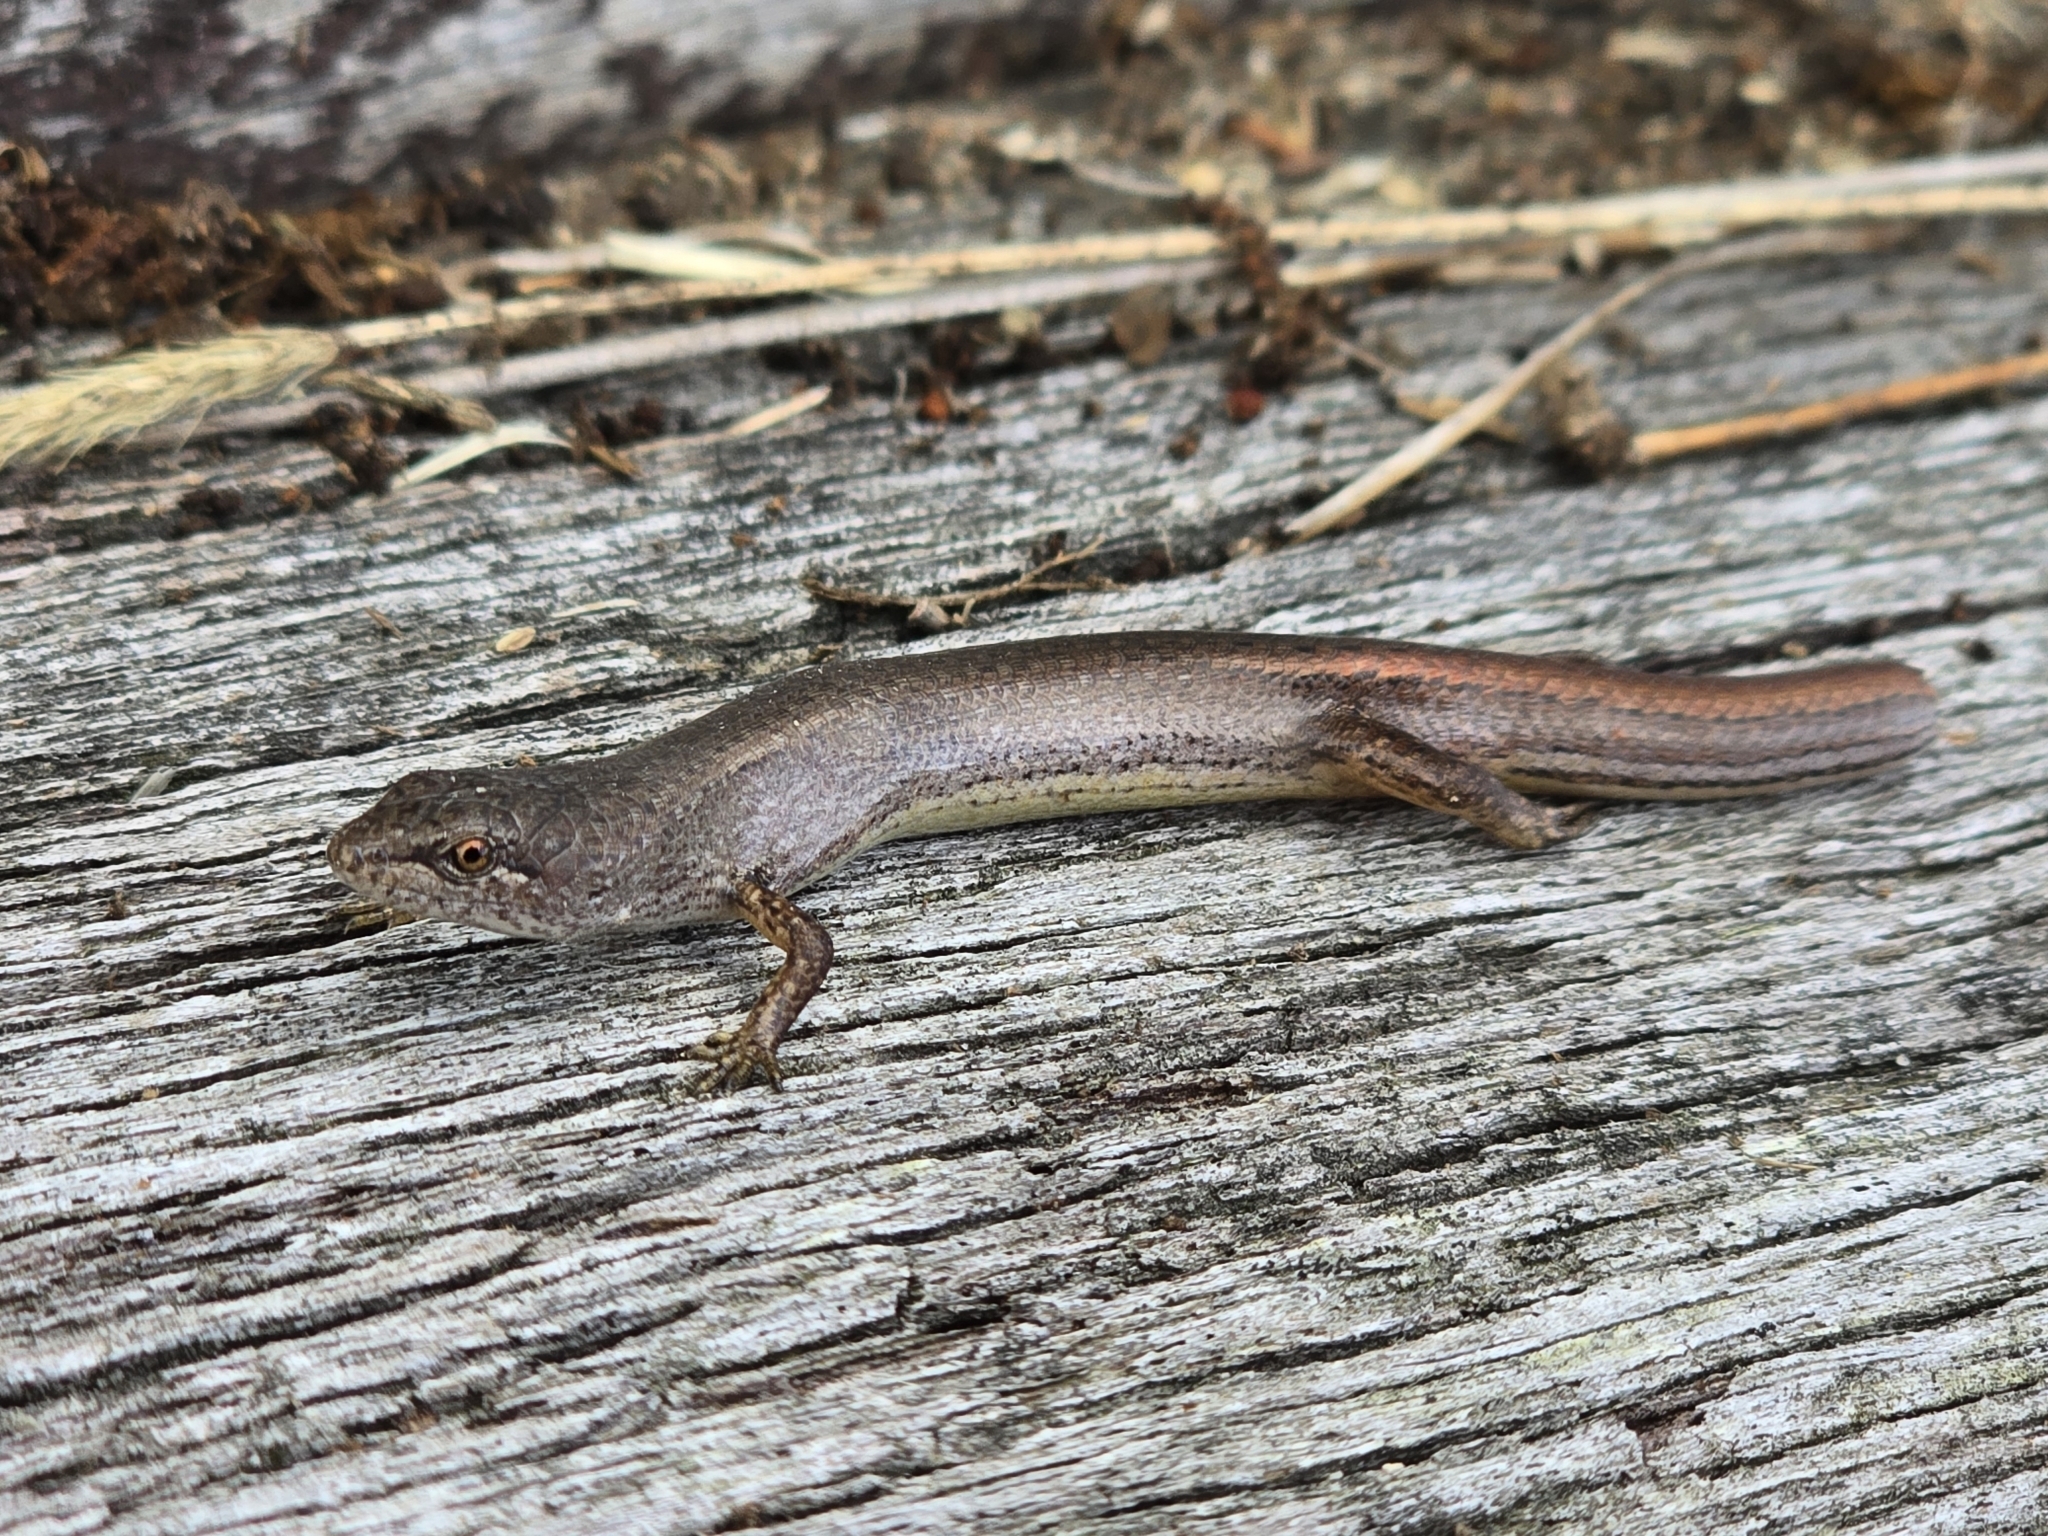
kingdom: Animalia
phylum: Chordata
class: Squamata
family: Scincidae
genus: Saproscincus
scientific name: Saproscincus mustelinus
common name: Southern weasel skink
